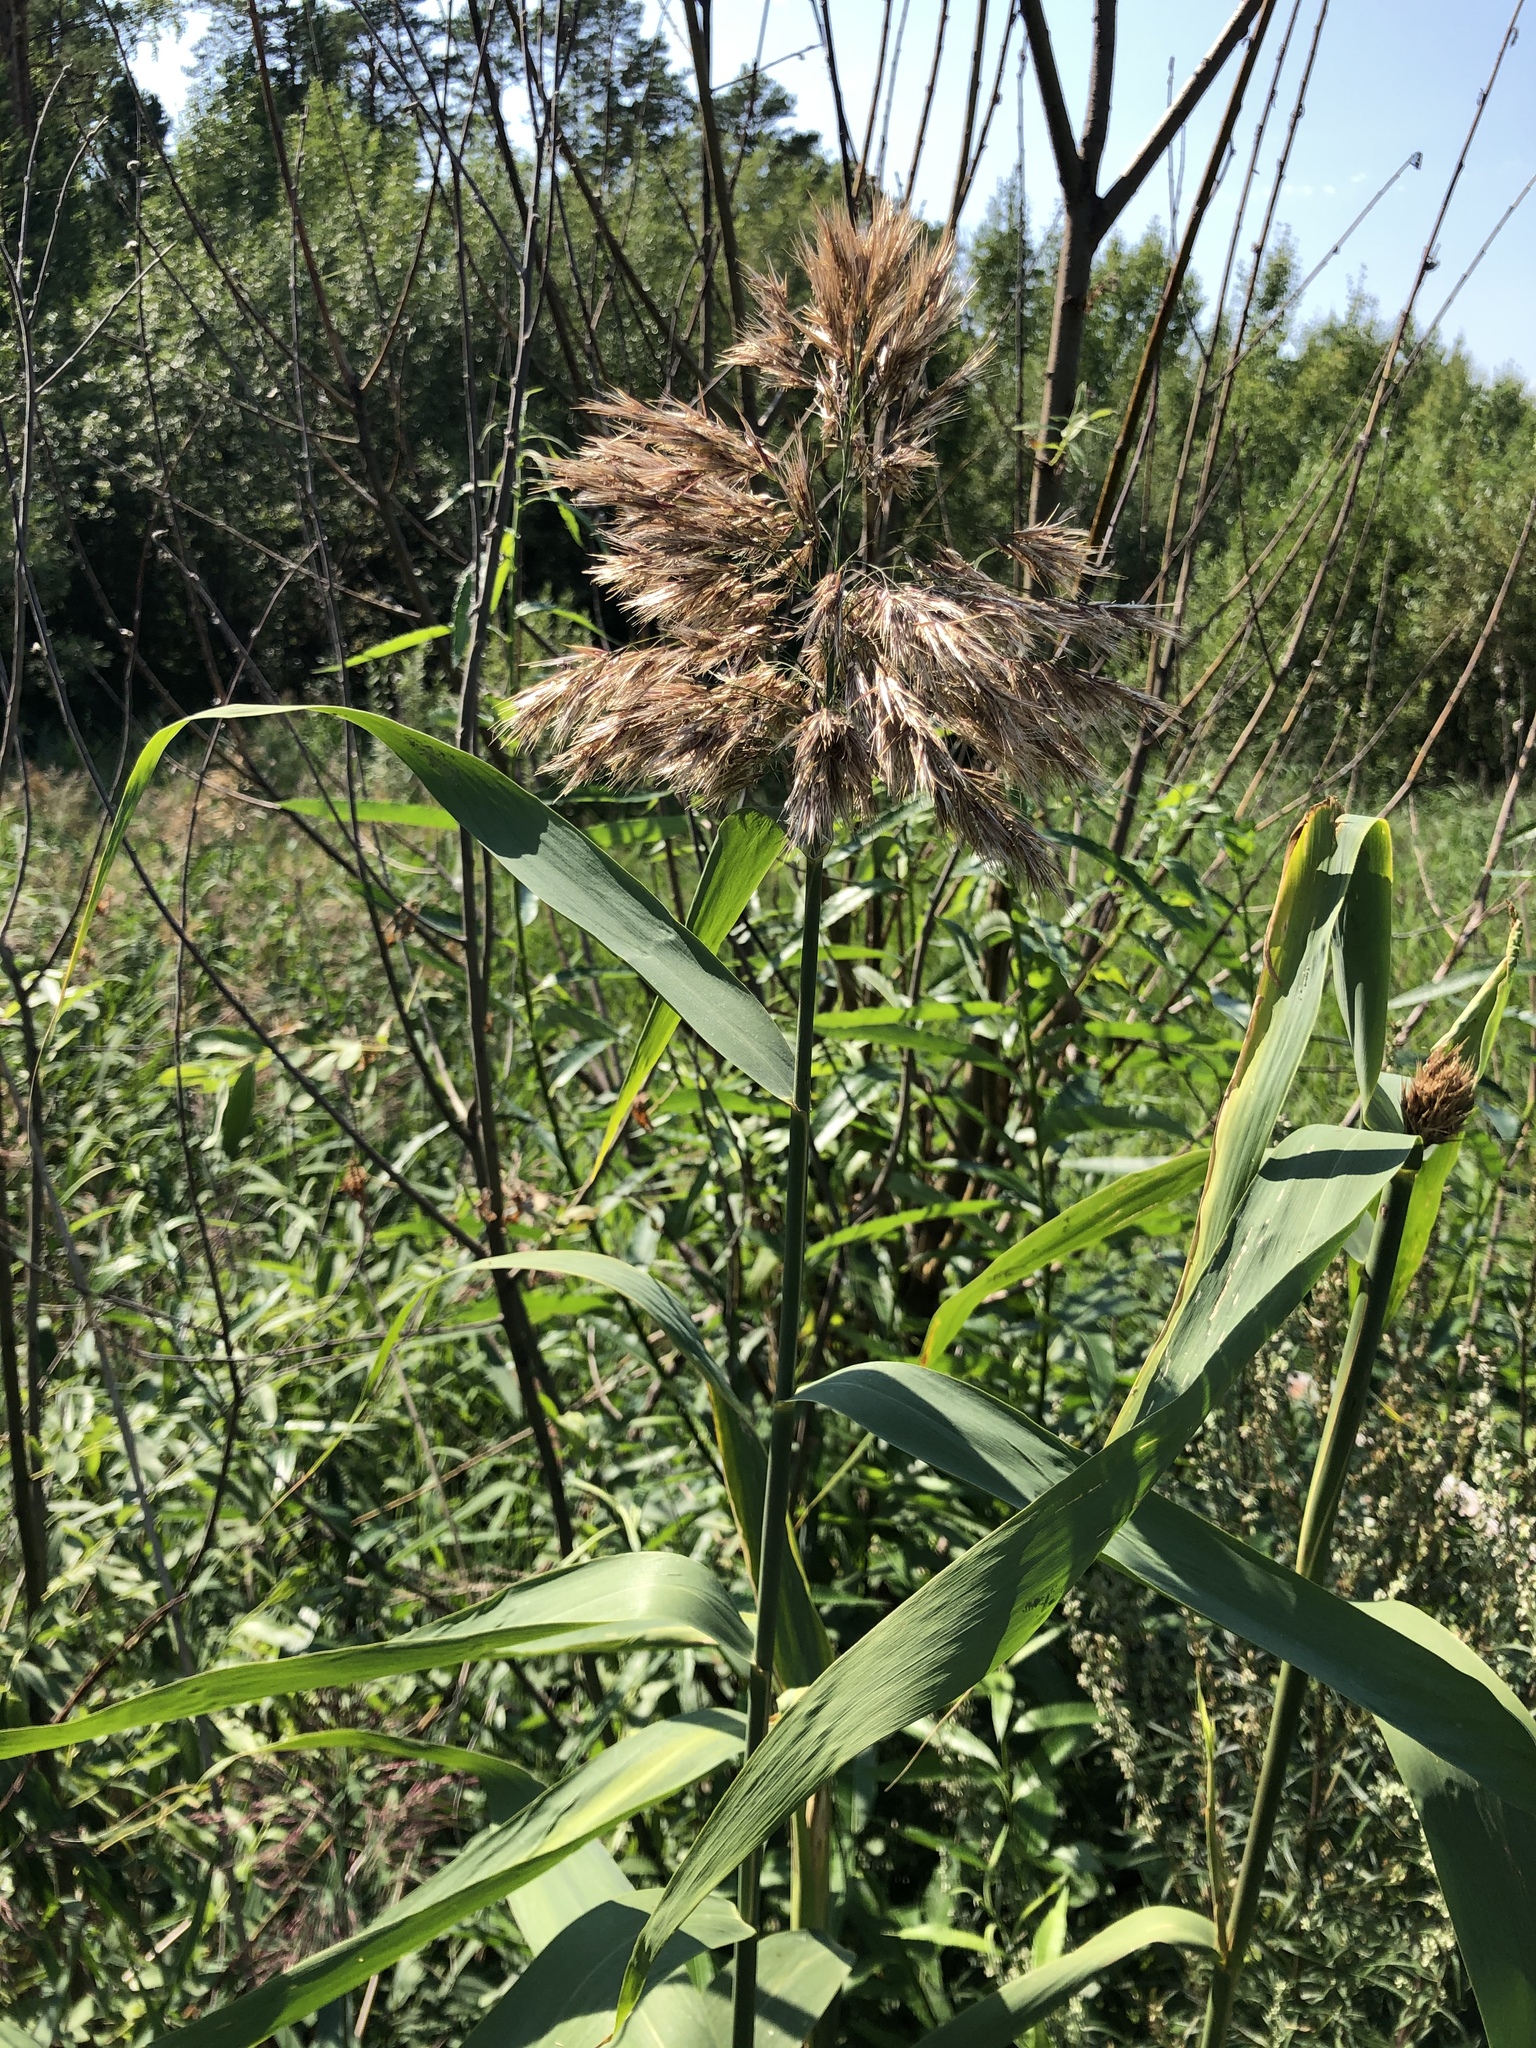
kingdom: Plantae
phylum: Tracheophyta
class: Liliopsida
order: Poales
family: Poaceae
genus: Phragmites
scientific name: Phragmites australis
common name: Common reed
